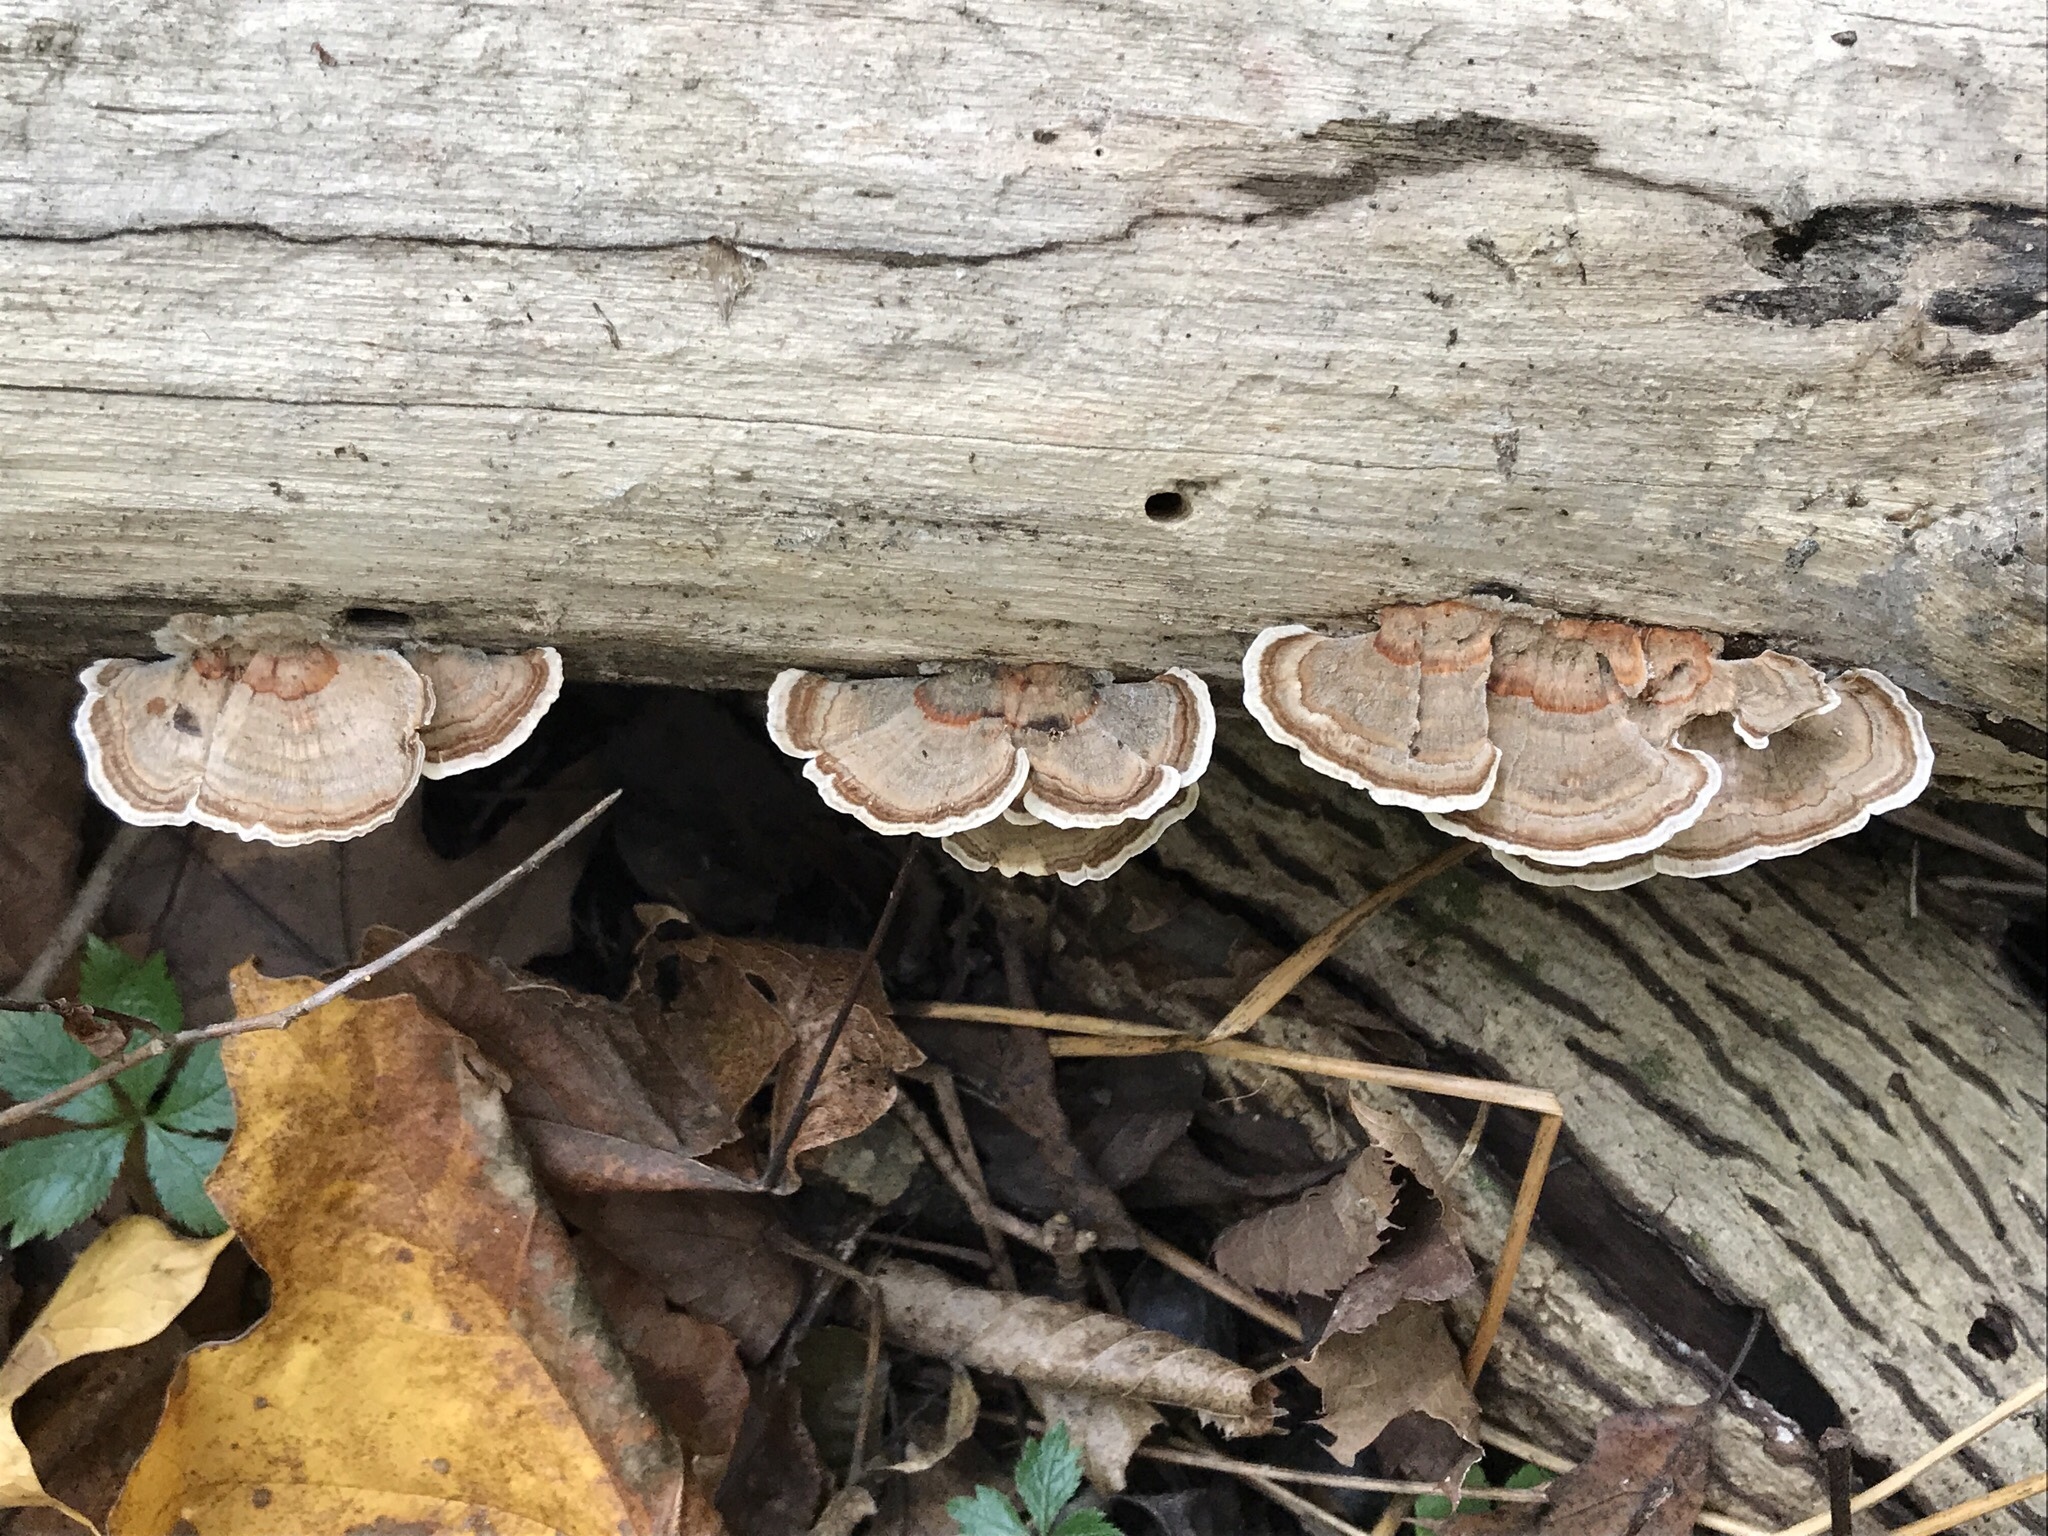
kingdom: Fungi
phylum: Basidiomycota
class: Agaricomycetes
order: Polyporales
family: Polyporaceae
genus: Trametes
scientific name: Trametes versicolor
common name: Turkeytail
